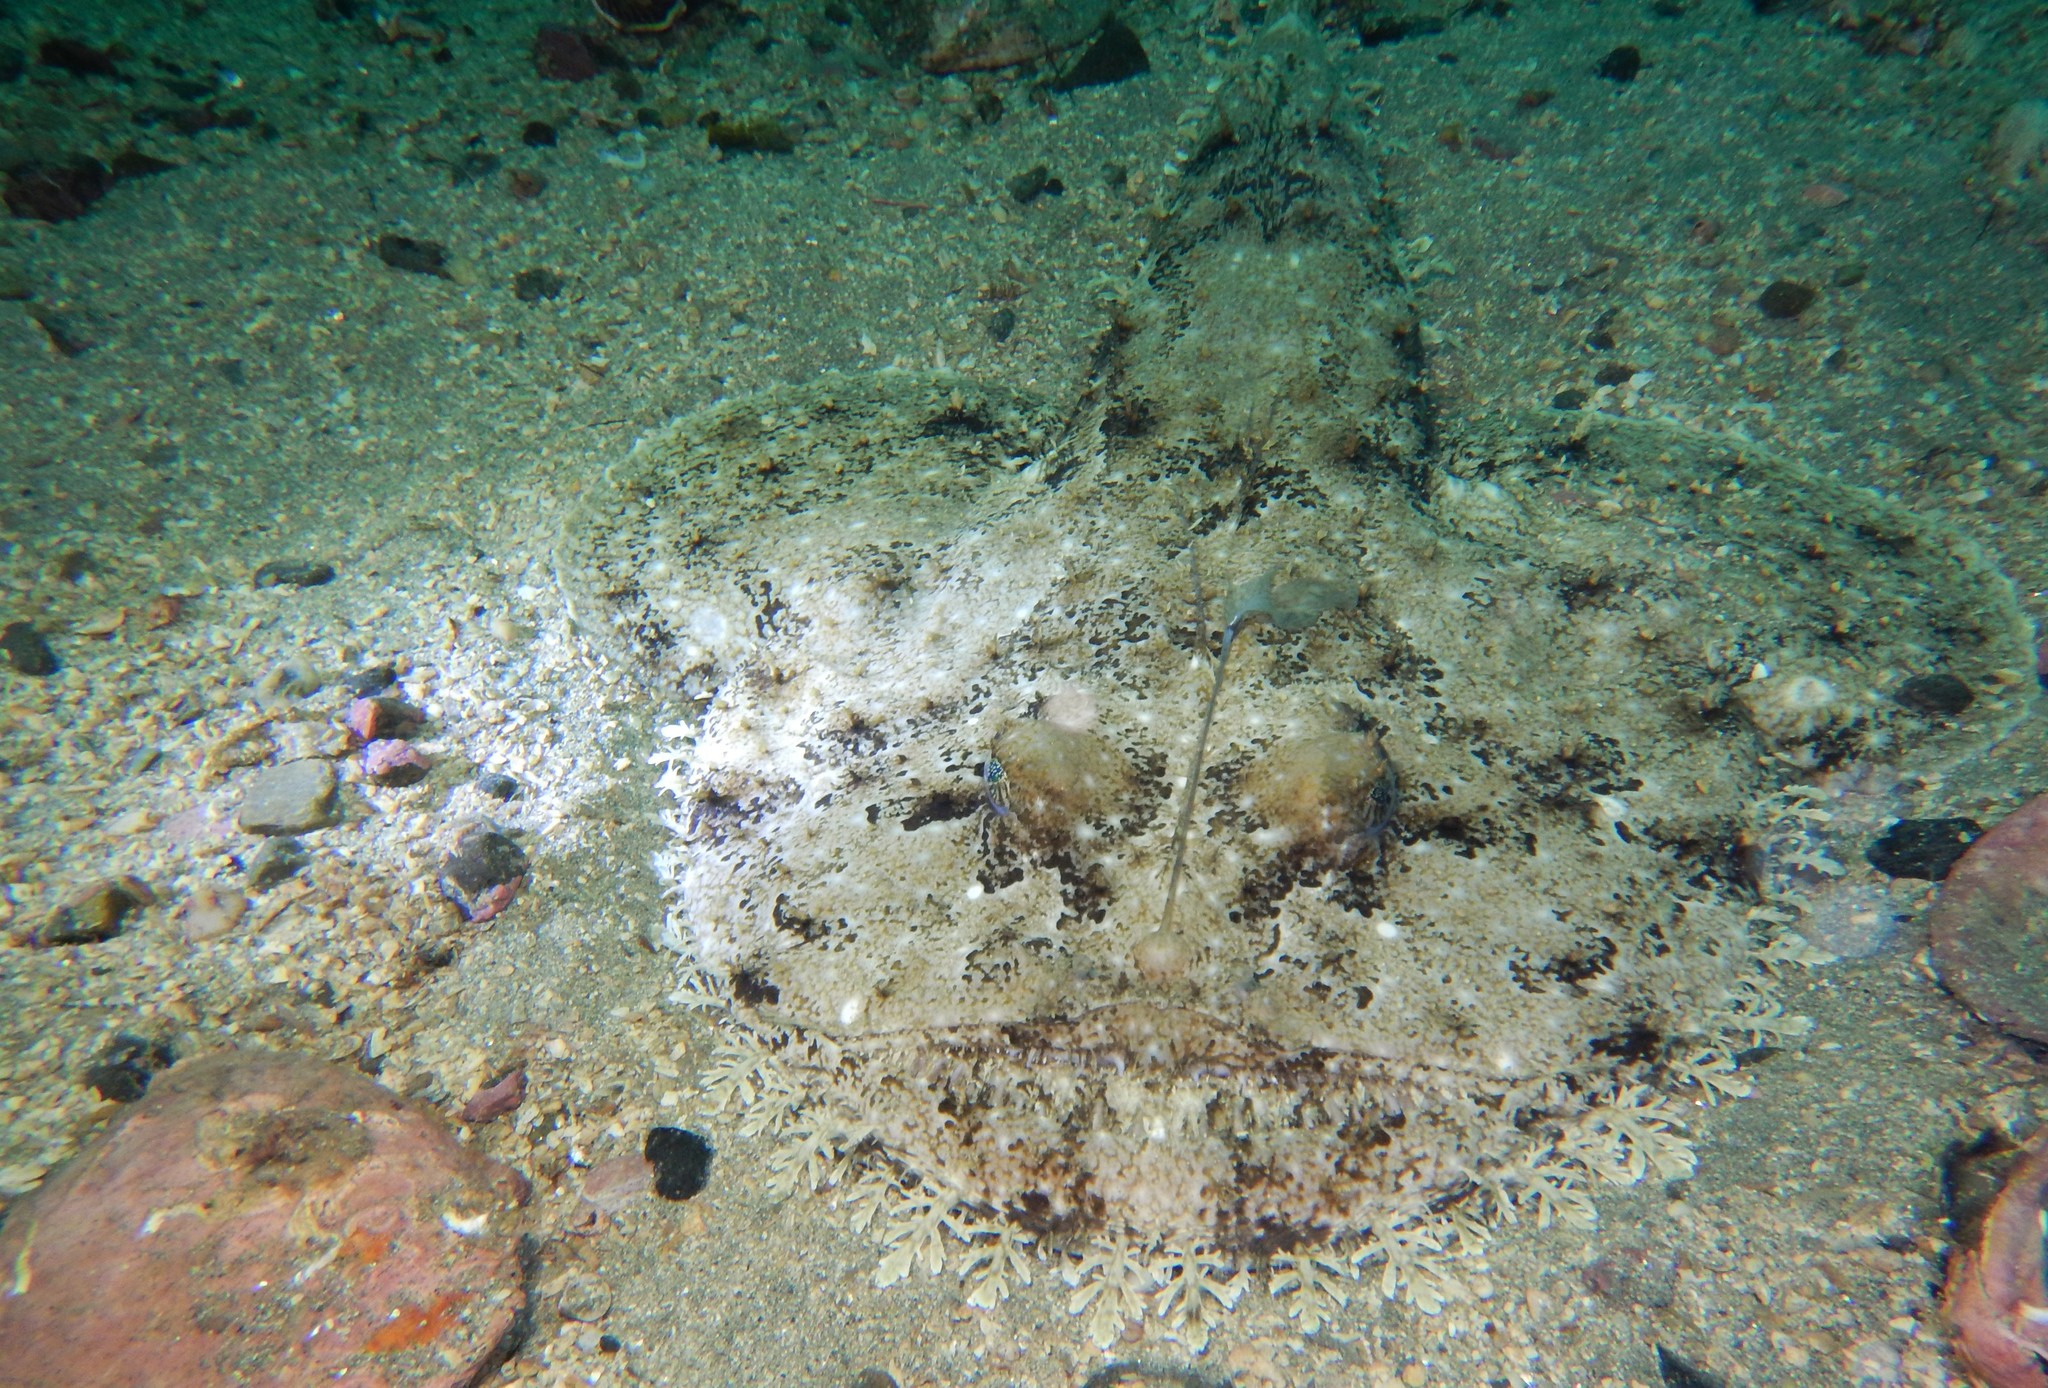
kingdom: Animalia
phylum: Chordata
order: Lophiiformes
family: Lophiidae
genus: Lophius
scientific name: Lophius piscatorius
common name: Angler
